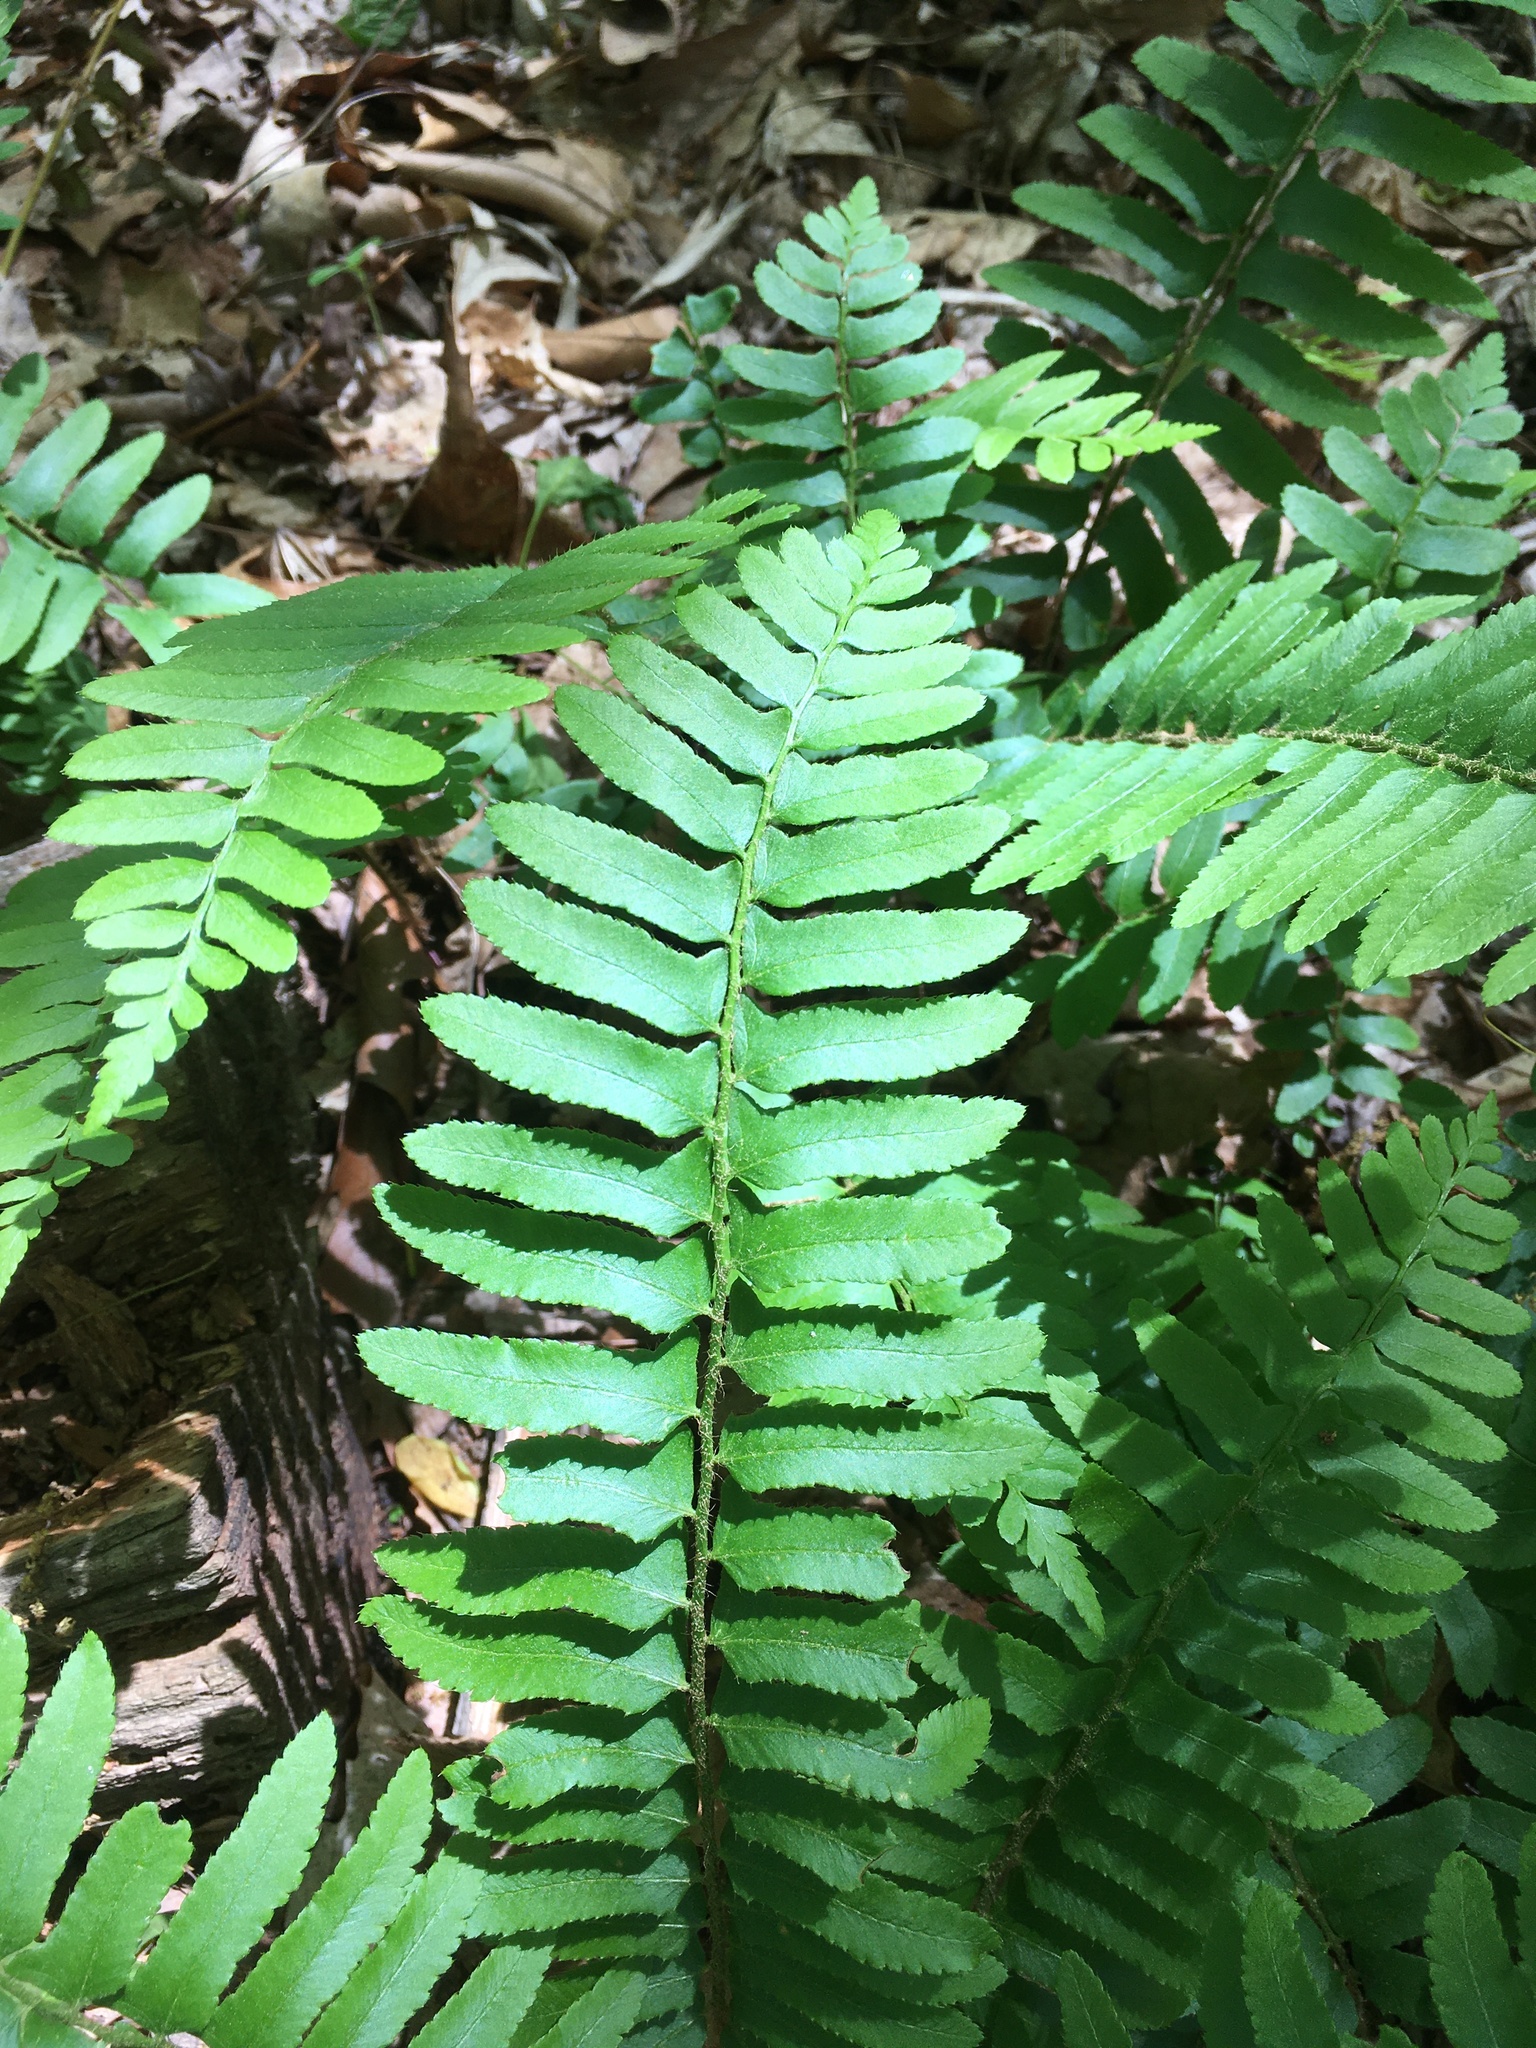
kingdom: Plantae
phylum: Tracheophyta
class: Polypodiopsida
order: Polypodiales
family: Dryopteridaceae
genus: Polystichum
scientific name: Polystichum acrostichoides
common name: Christmas fern
